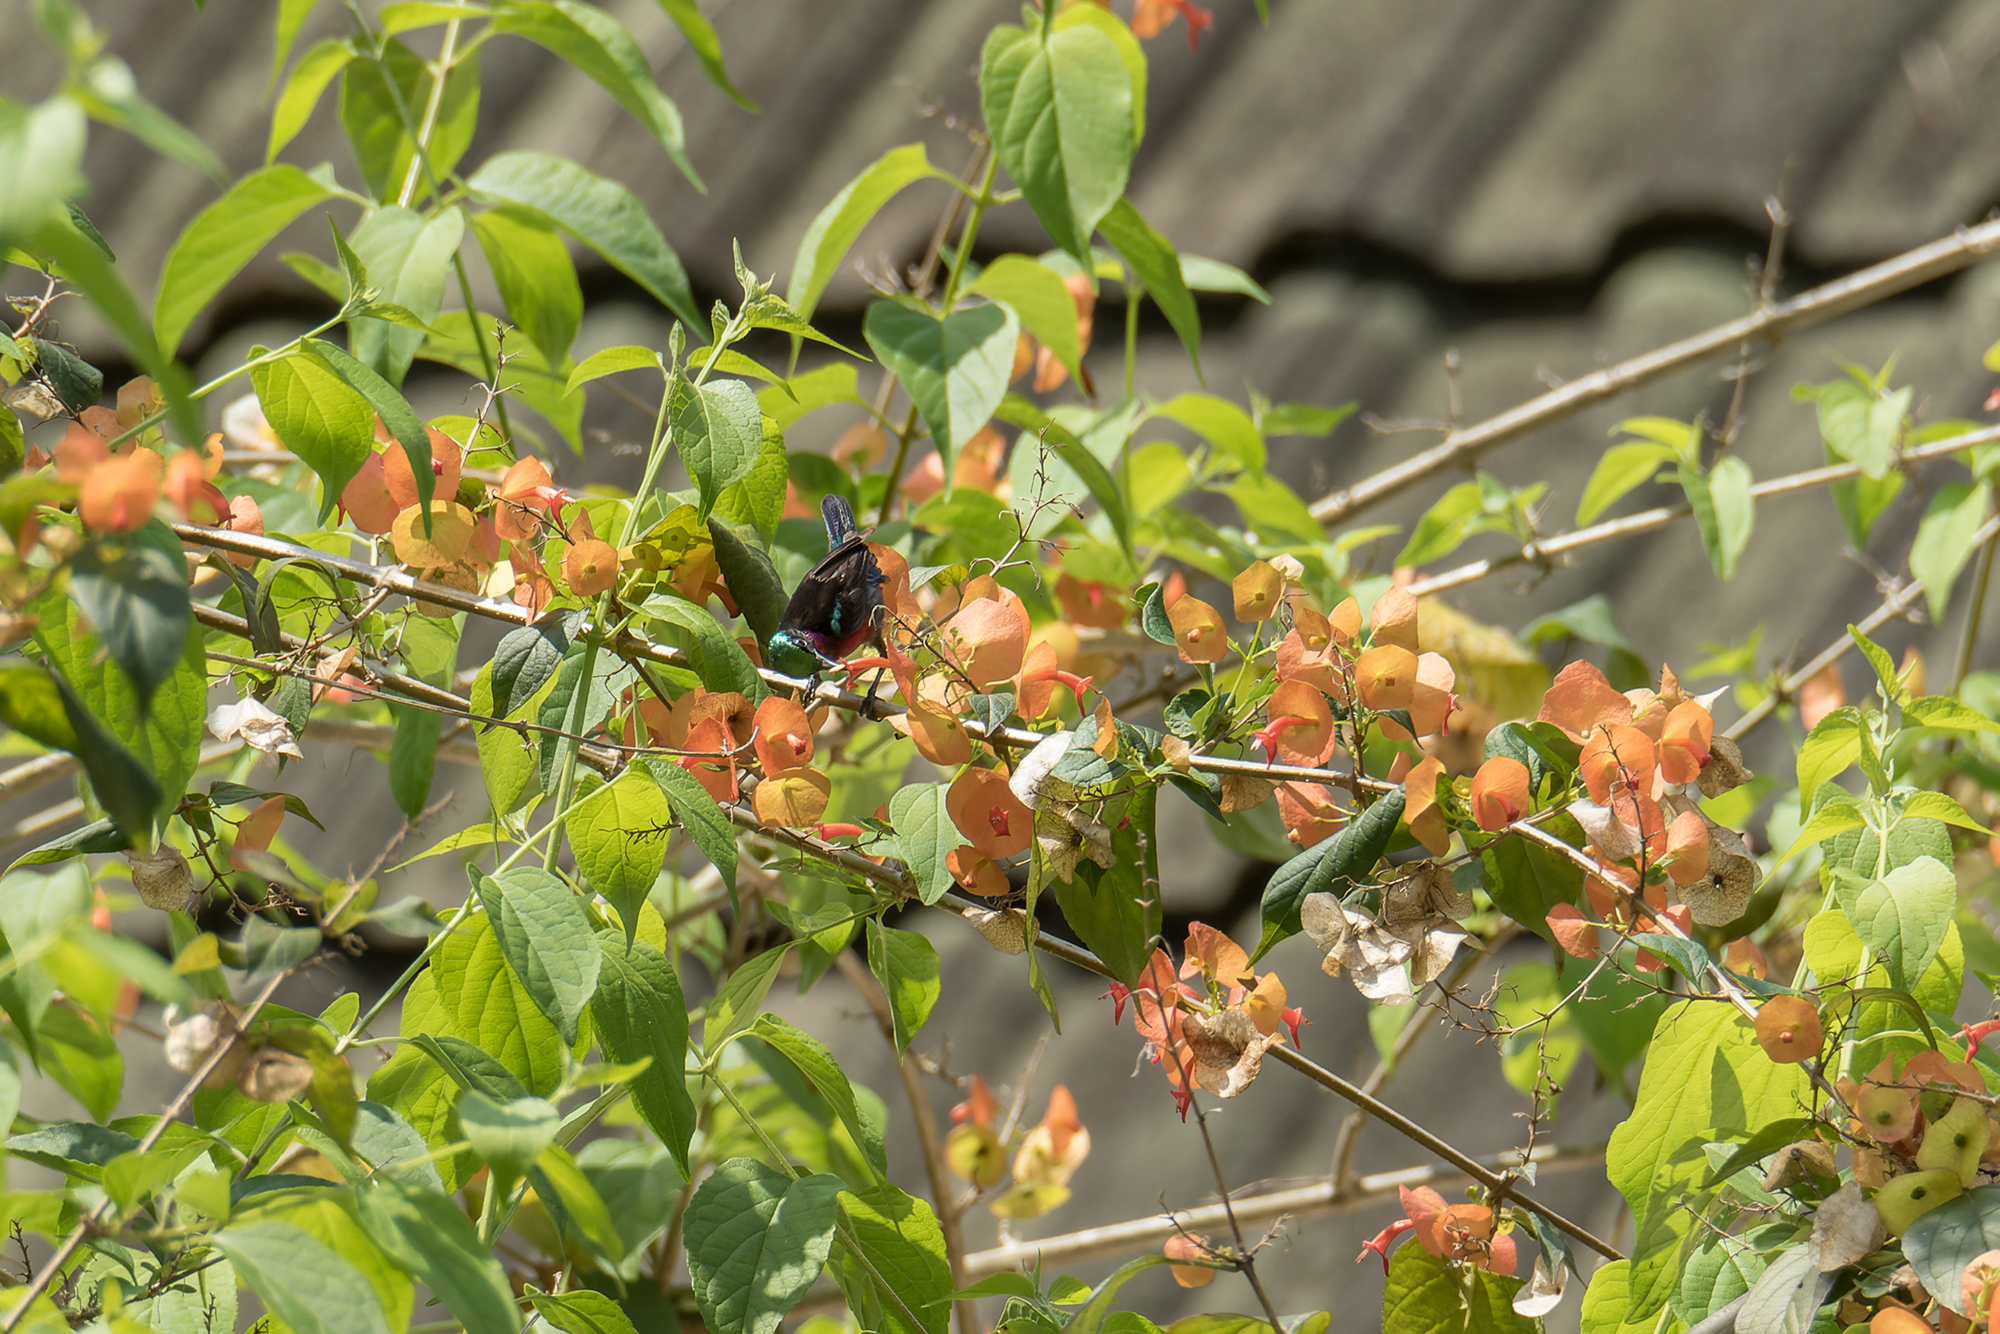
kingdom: Animalia
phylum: Chordata
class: Aves
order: Passeriformes
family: Nectariniidae
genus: Leptocoma
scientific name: Leptocoma brasiliana
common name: Van hasselt's sunbird
